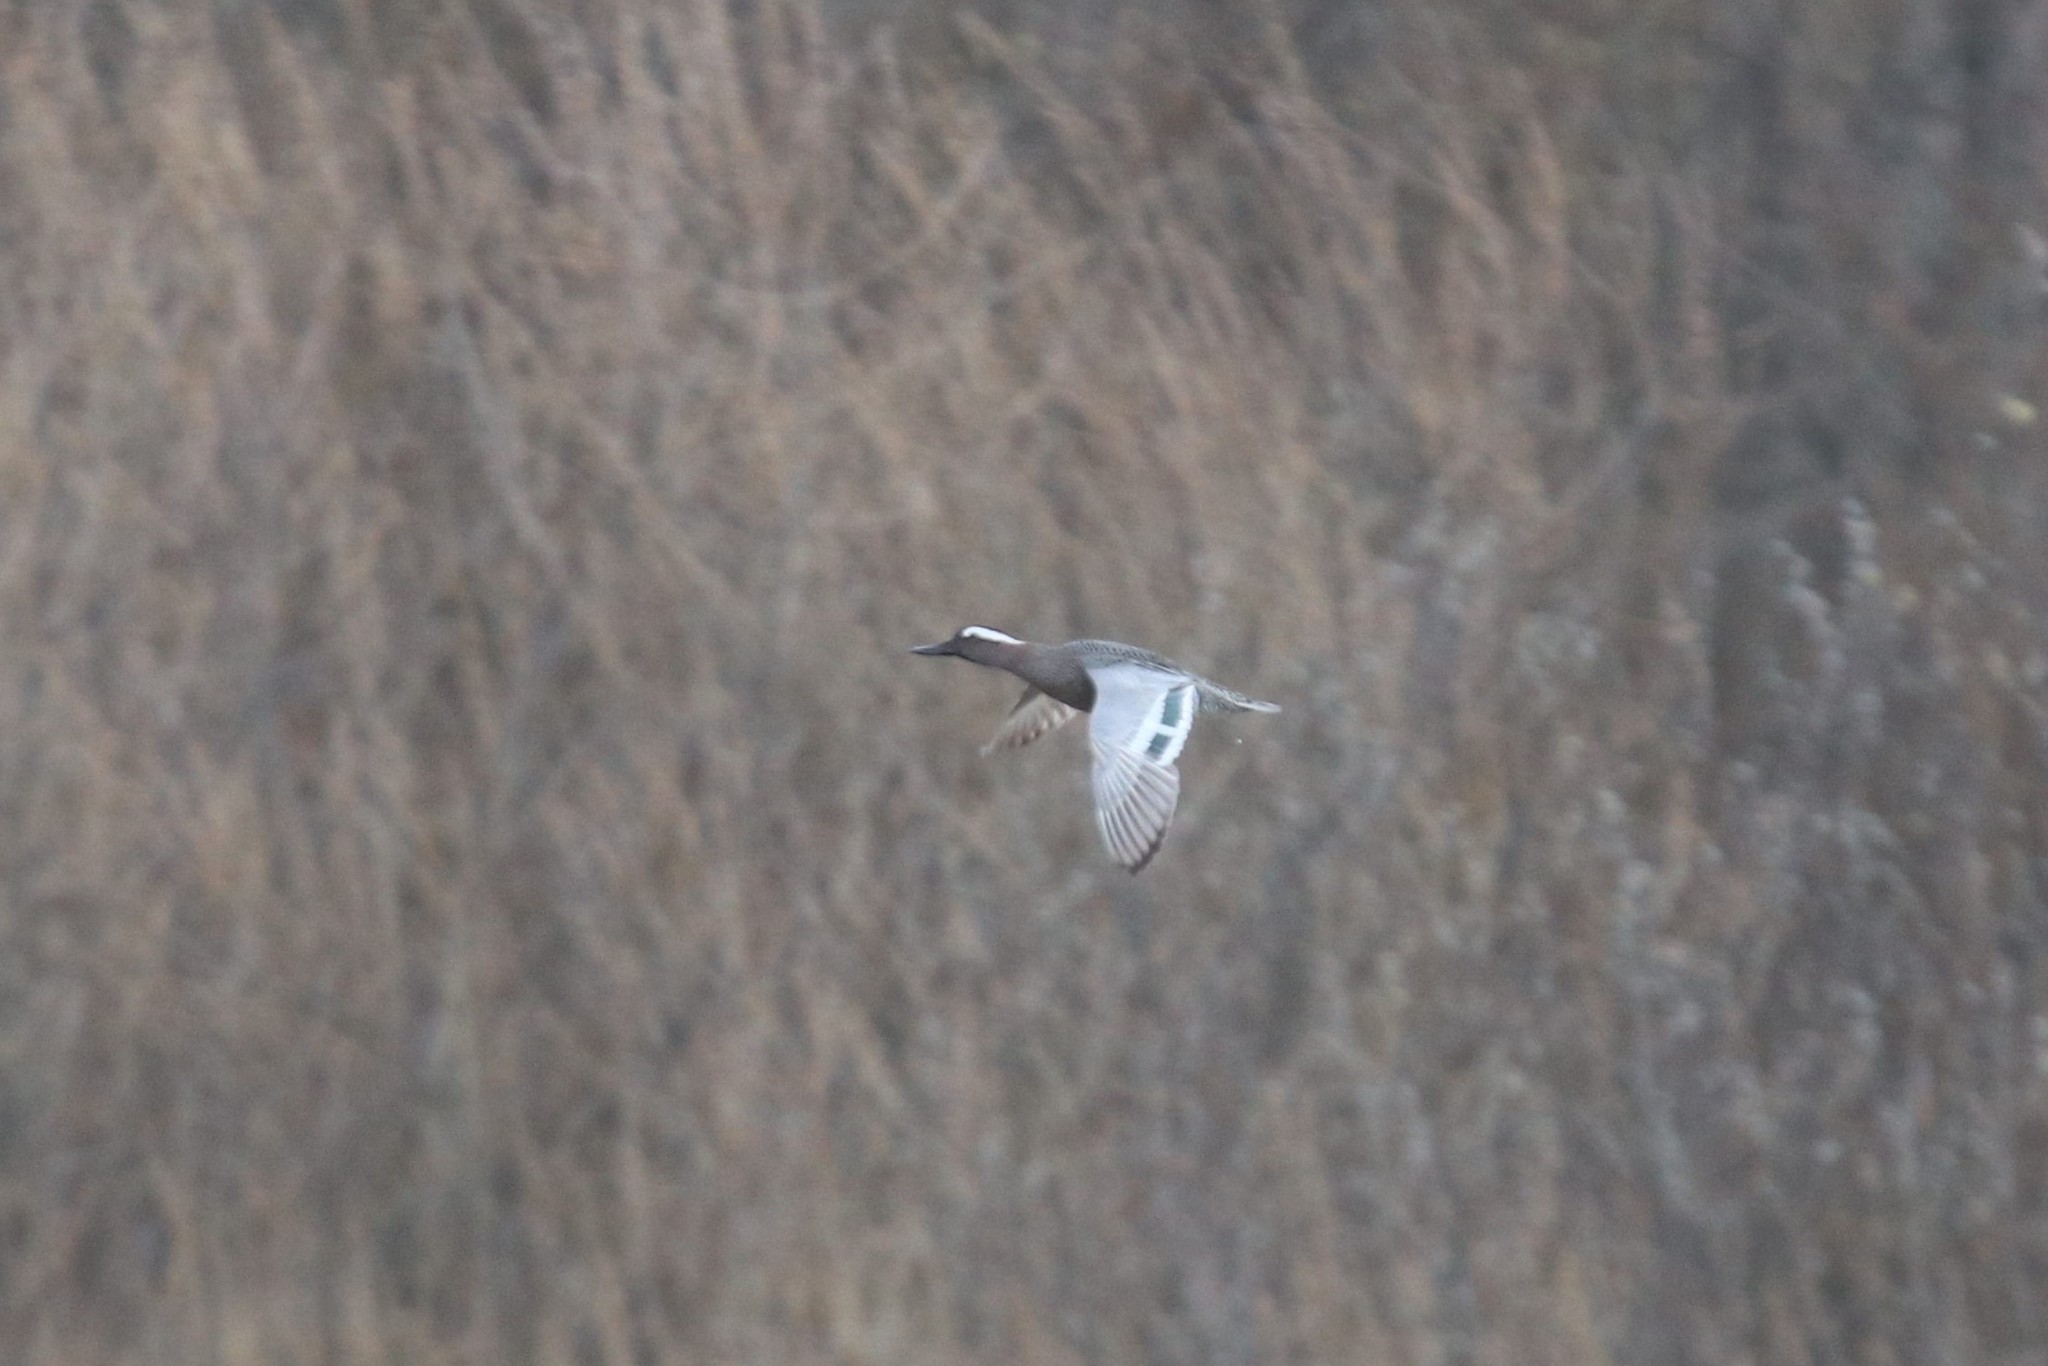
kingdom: Animalia
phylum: Chordata
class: Aves
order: Anseriformes
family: Anatidae
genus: Spatula
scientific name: Spatula querquedula
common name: Garganey
